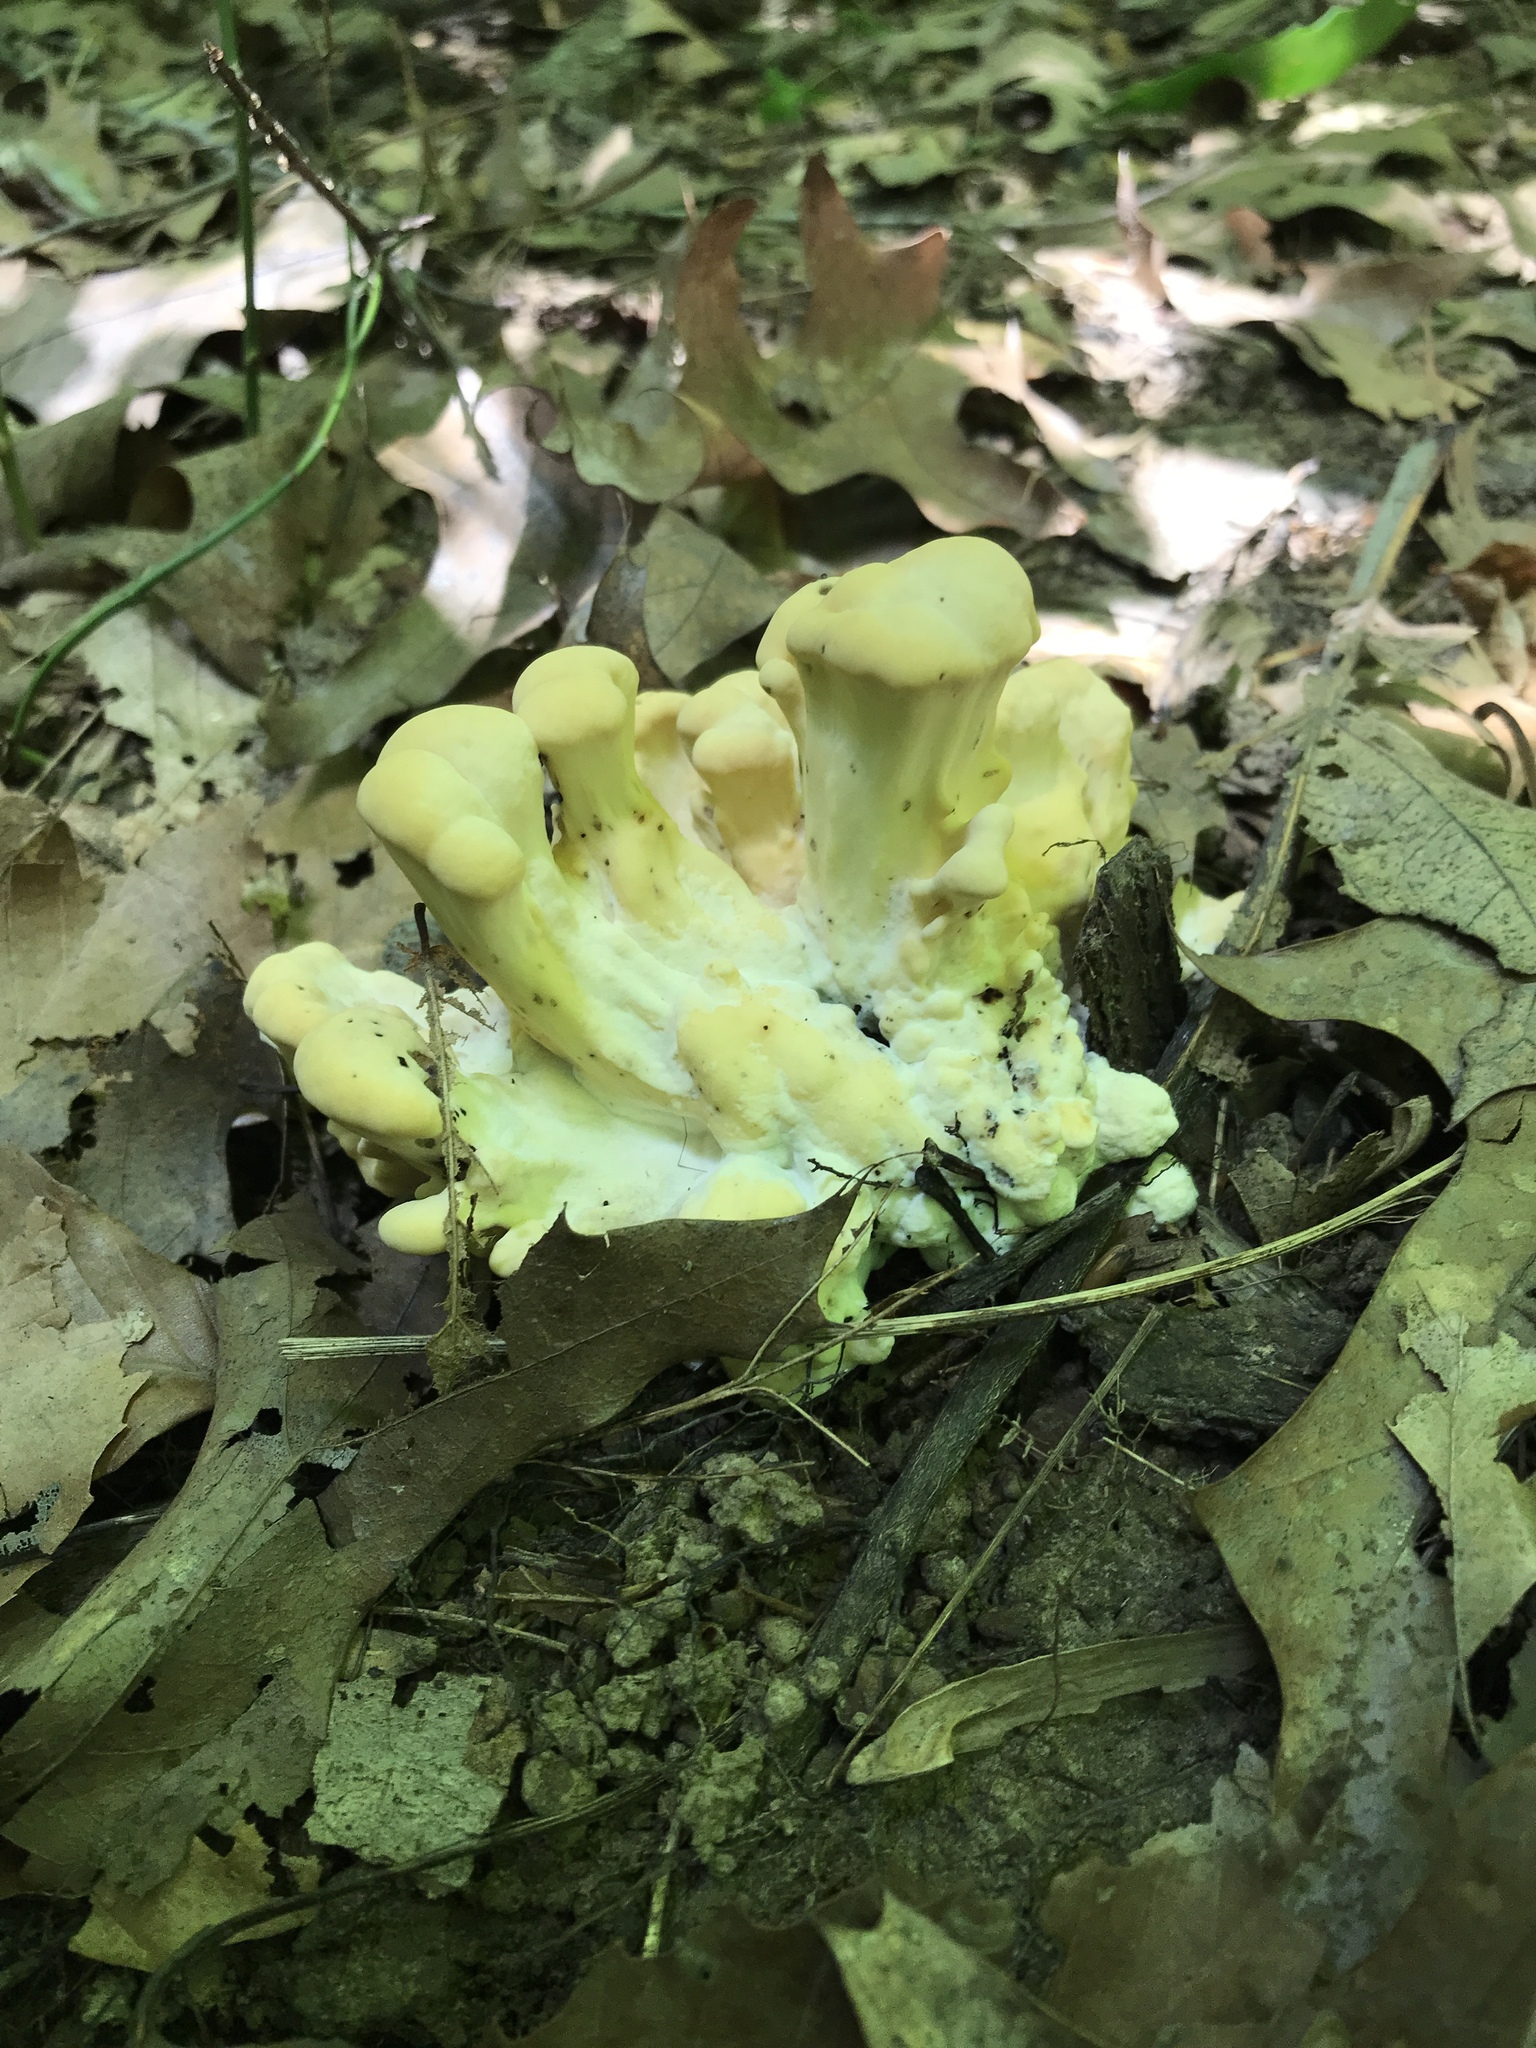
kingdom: Fungi
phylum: Basidiomycota
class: Agaricomycetes
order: Polyporales
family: Meripilaceae
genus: Meripilus
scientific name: Meripilus sumstinei
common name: Black-staining polypore
